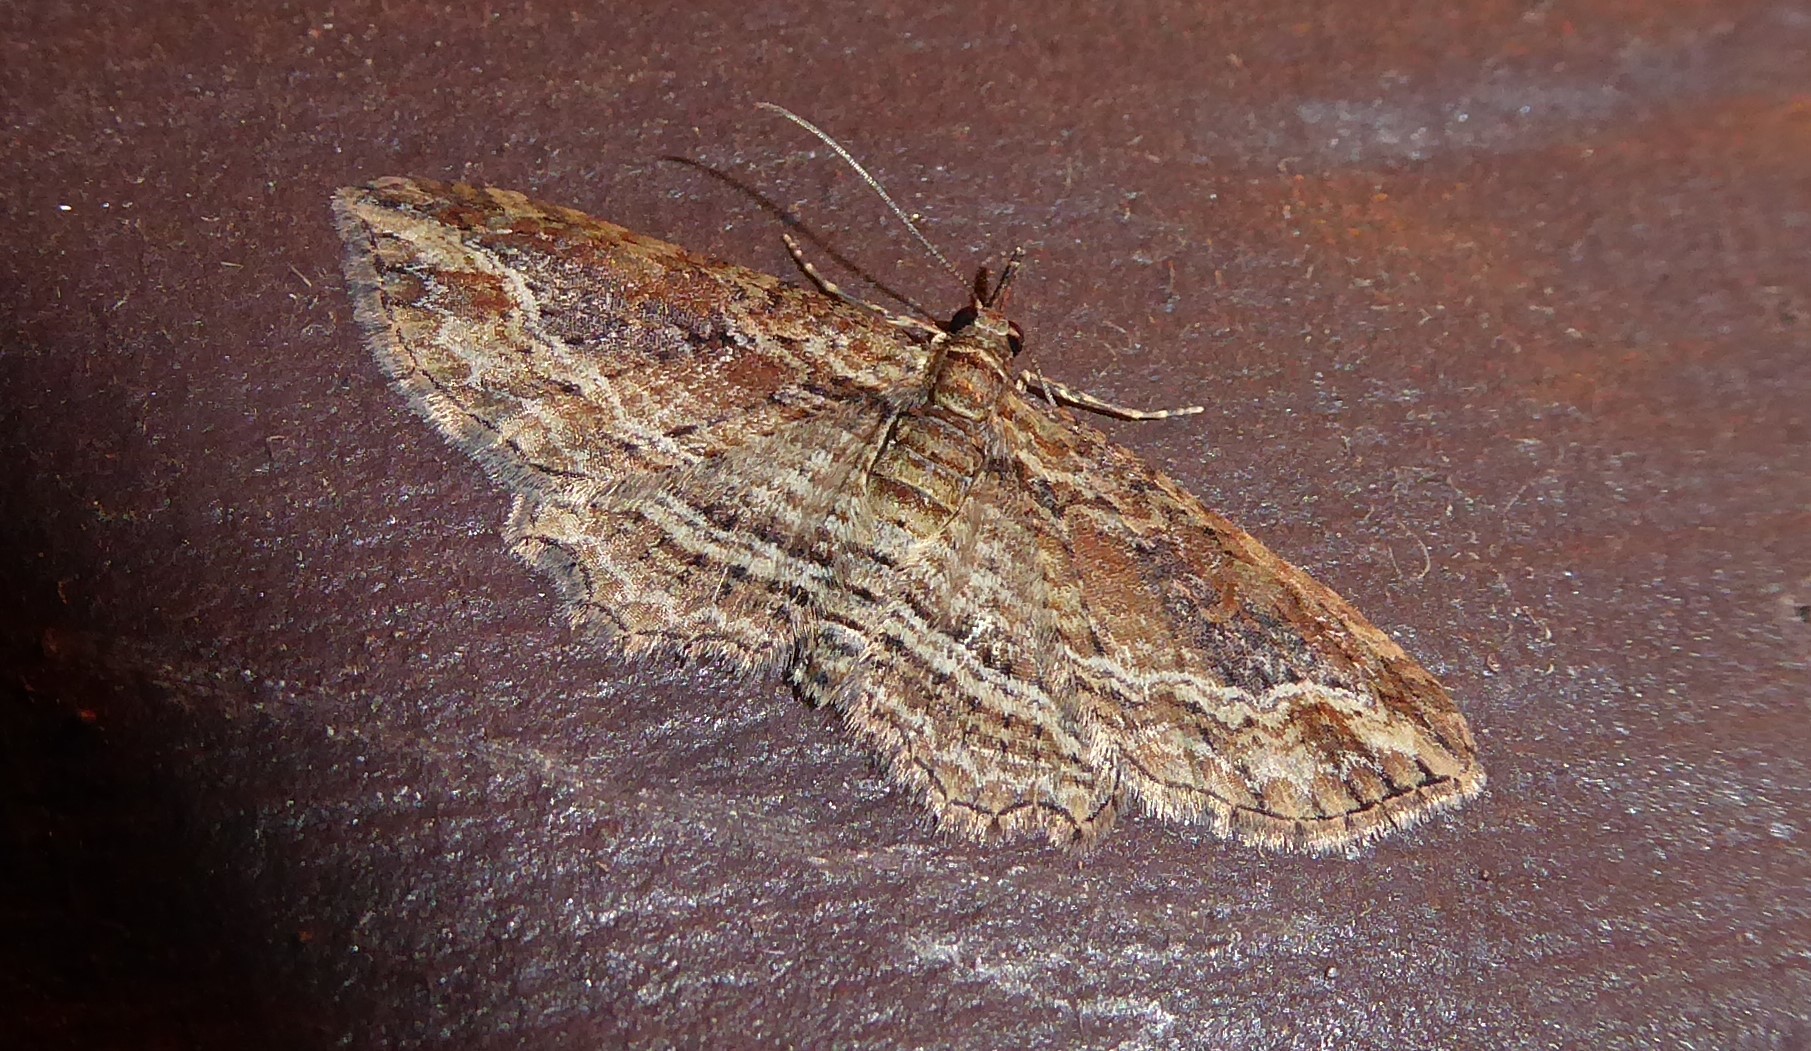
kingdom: Animalia
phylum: Arthropoda
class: Insecta
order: Lepidoptera
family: Geometridae
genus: Chloroclystis
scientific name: Chloroclystis filata
